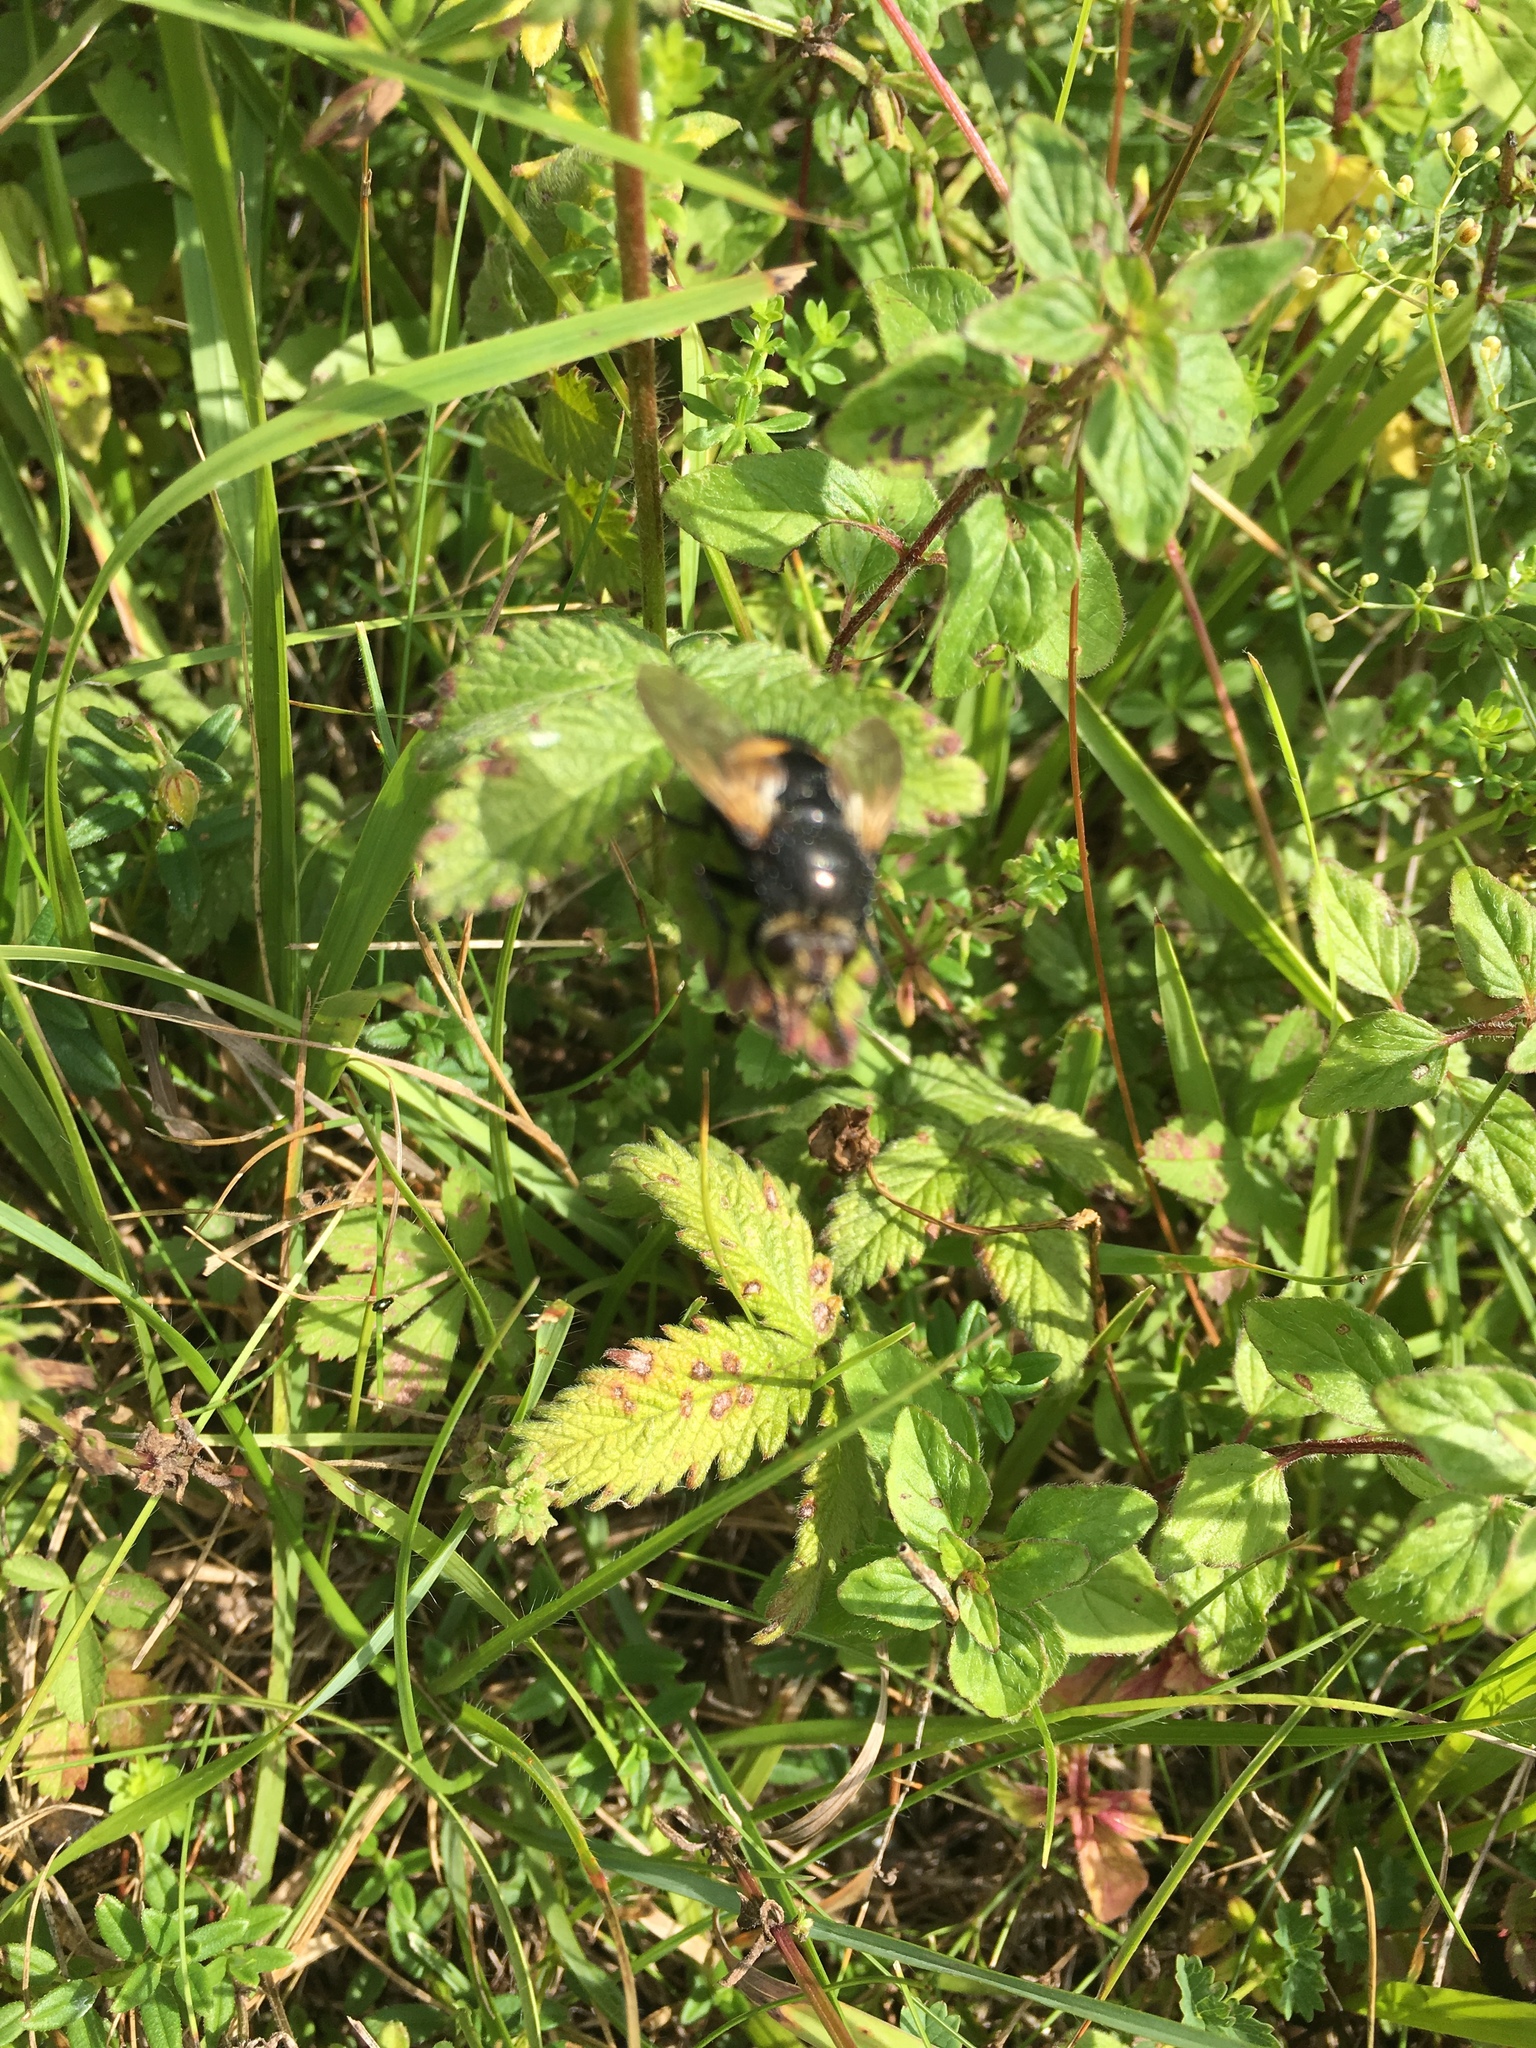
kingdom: Animalia
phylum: Arthropoda
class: Insecta
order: Diptera
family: Tachinidae
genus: Nowickia
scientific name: Nowickia ferox
